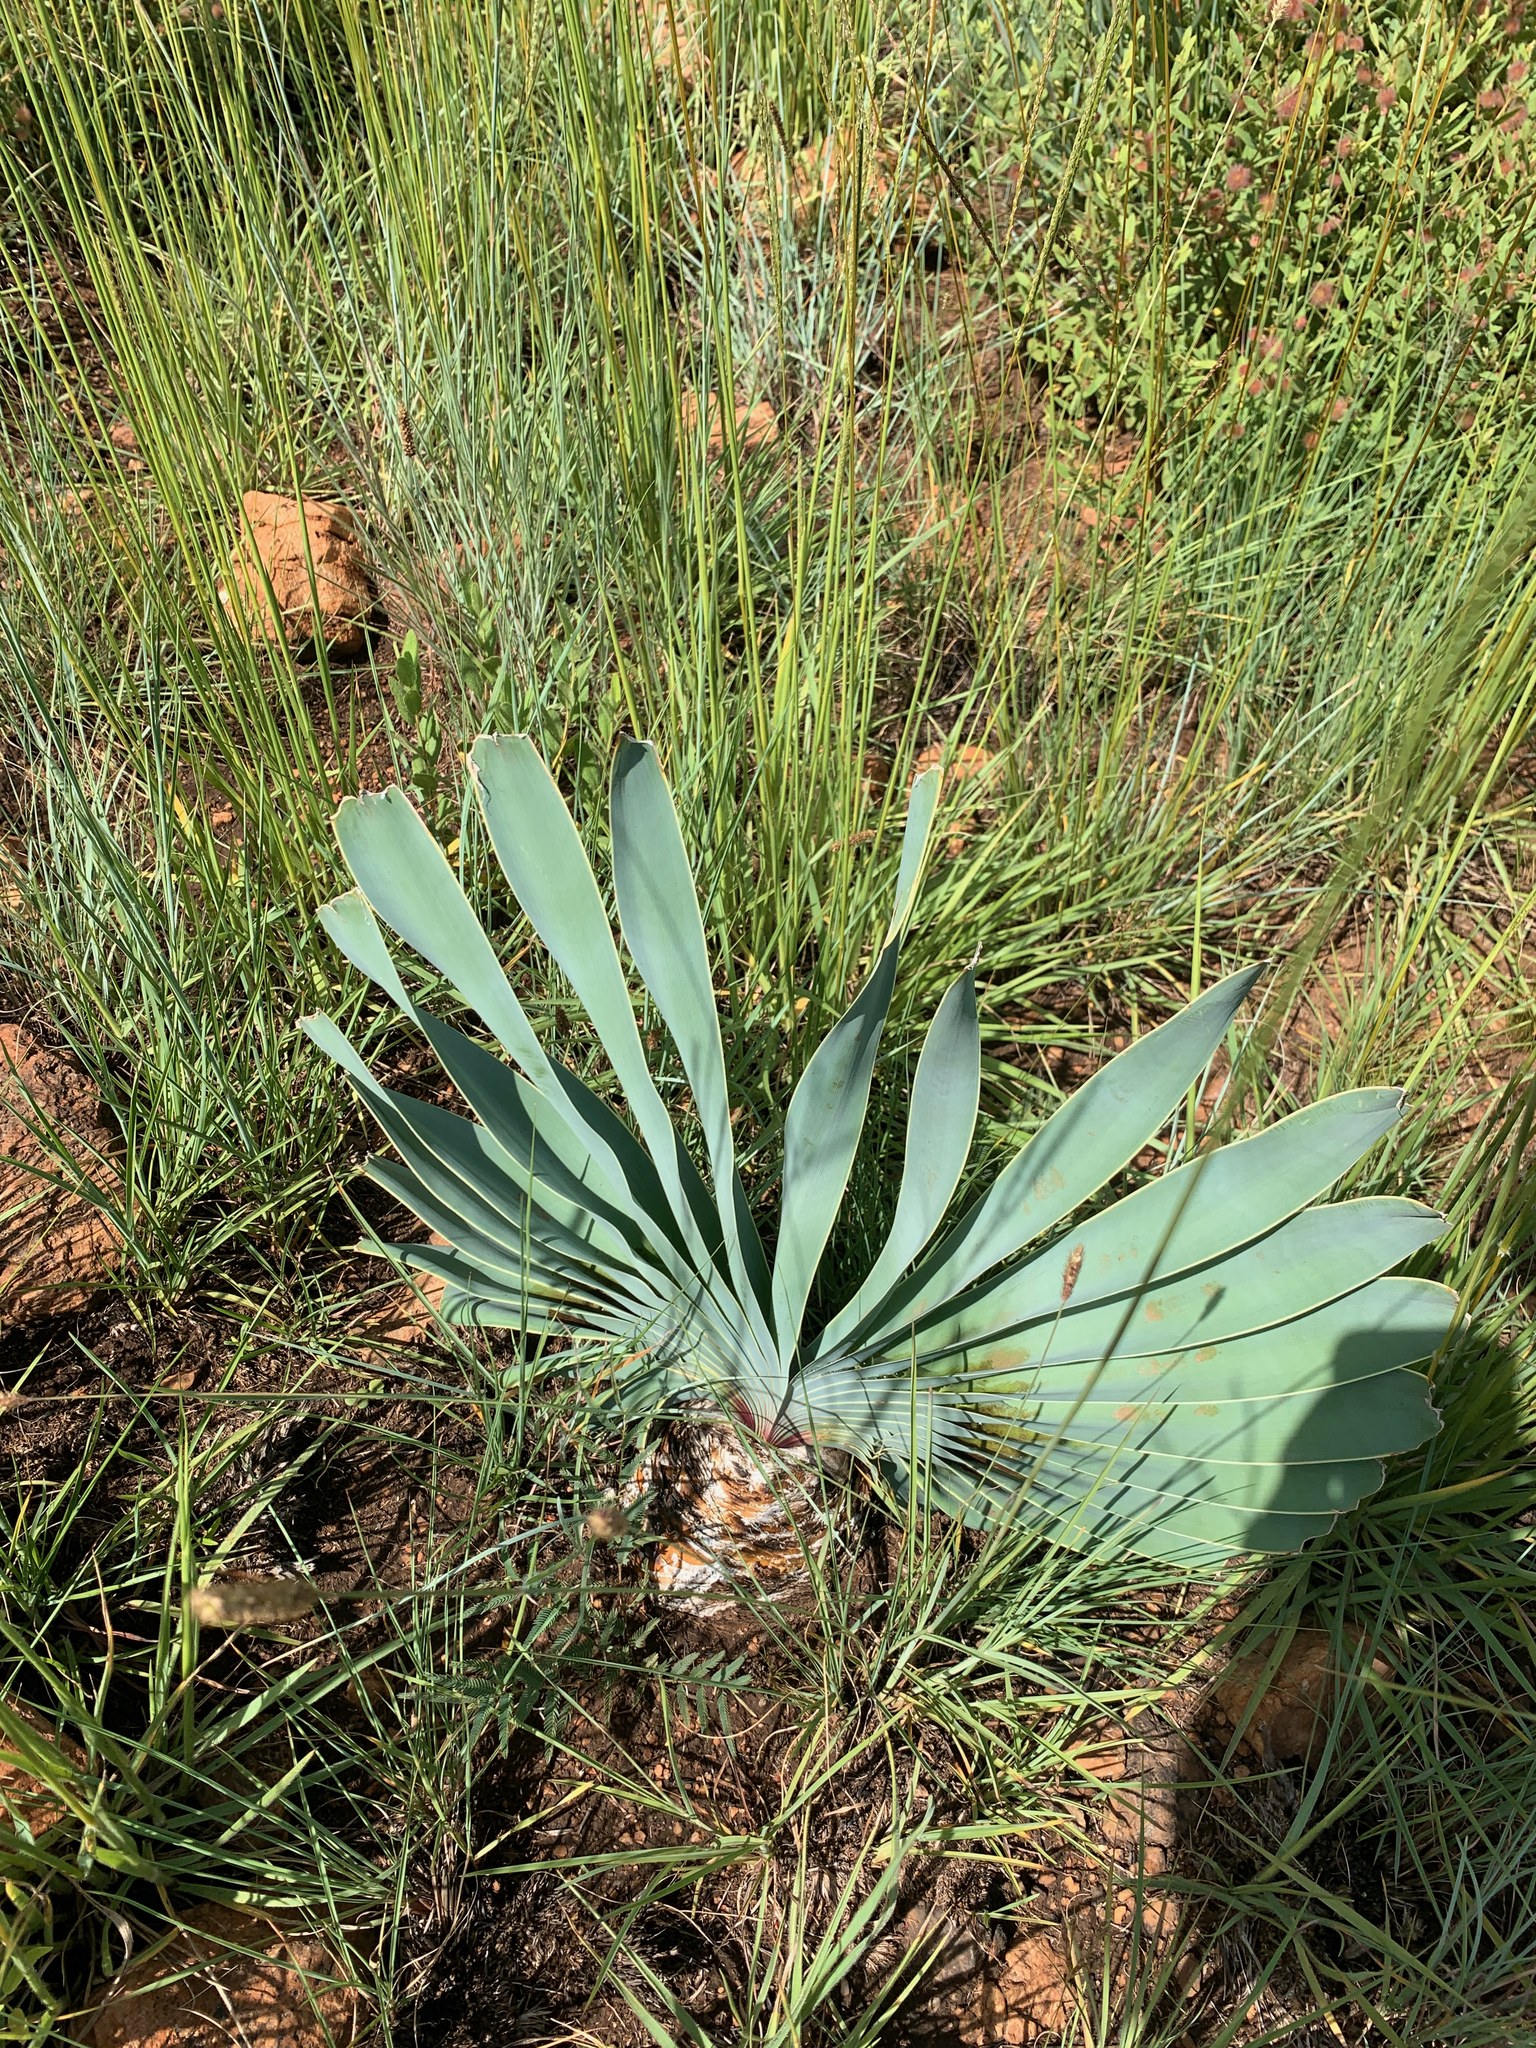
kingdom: Plantae
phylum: Tracheophyta
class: Liliopsida
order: Asparagales
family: Amaryllidaceae
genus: Boophone
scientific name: Boophone disticha
